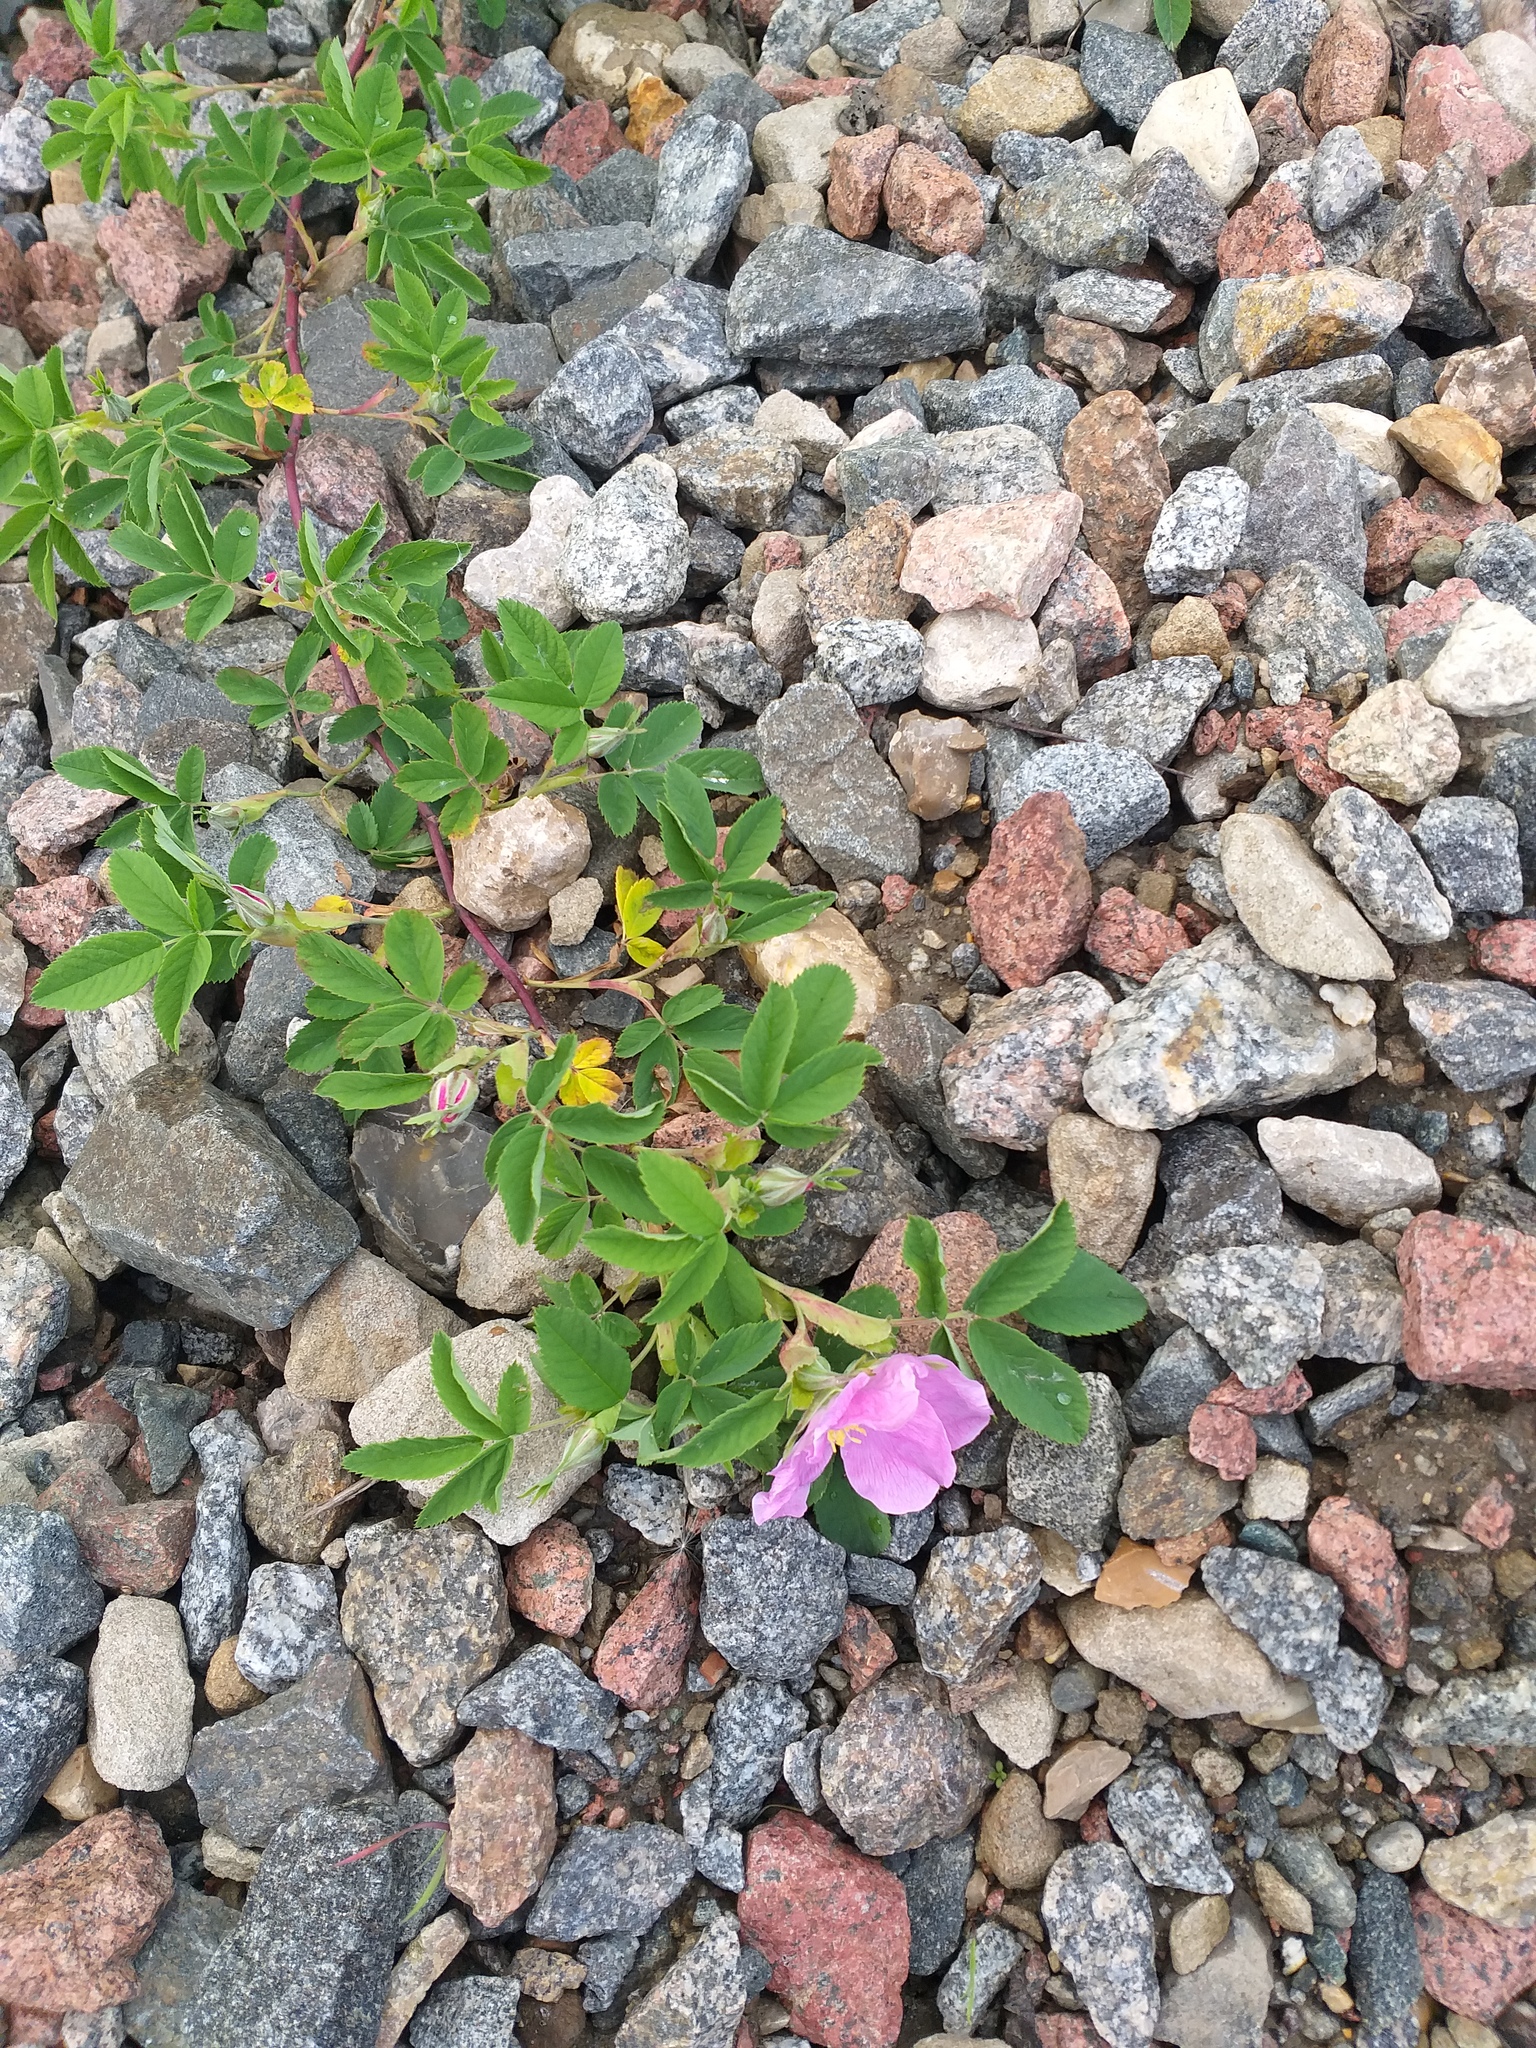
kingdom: Plantae
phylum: Tracheophyta
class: Magnoliopsida
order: Rosales
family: Rosaceae
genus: Rosa
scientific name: Rosa majalis
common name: Cinnamon rose
